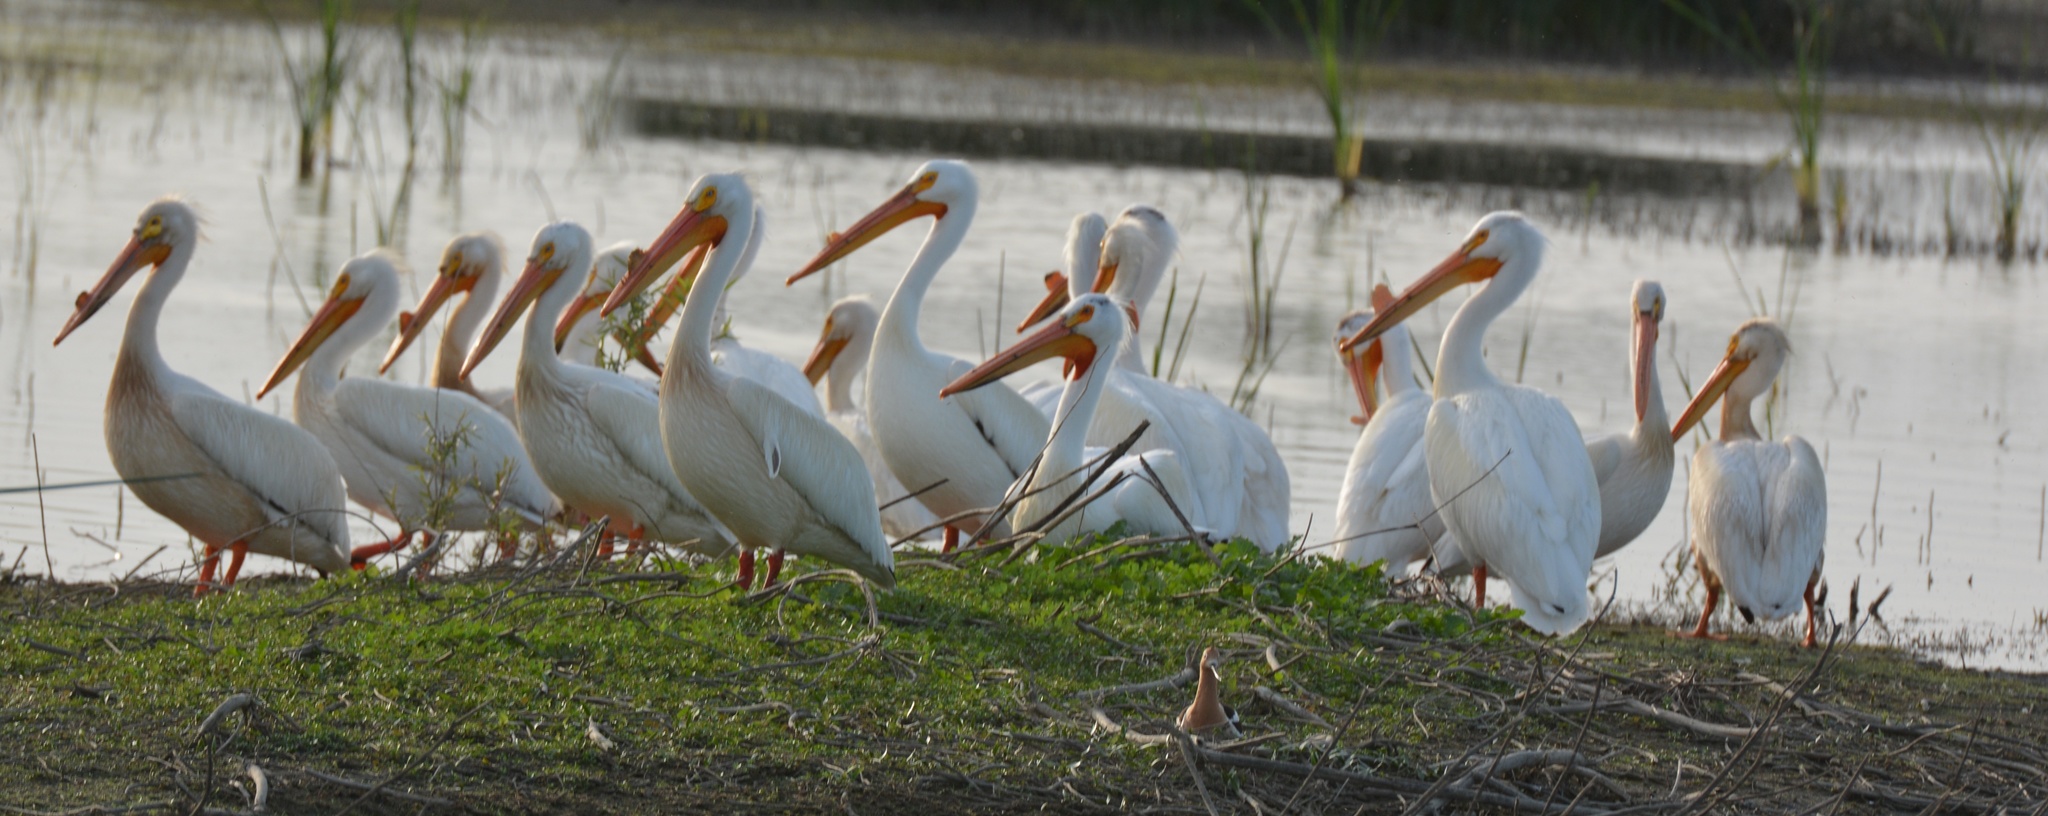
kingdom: Animalia
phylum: Chordata
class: Aves
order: Pelecaniformes
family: Pelecanidae
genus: Pelecanus
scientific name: Pelecanus erythrorhynchos
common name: American white pelican
